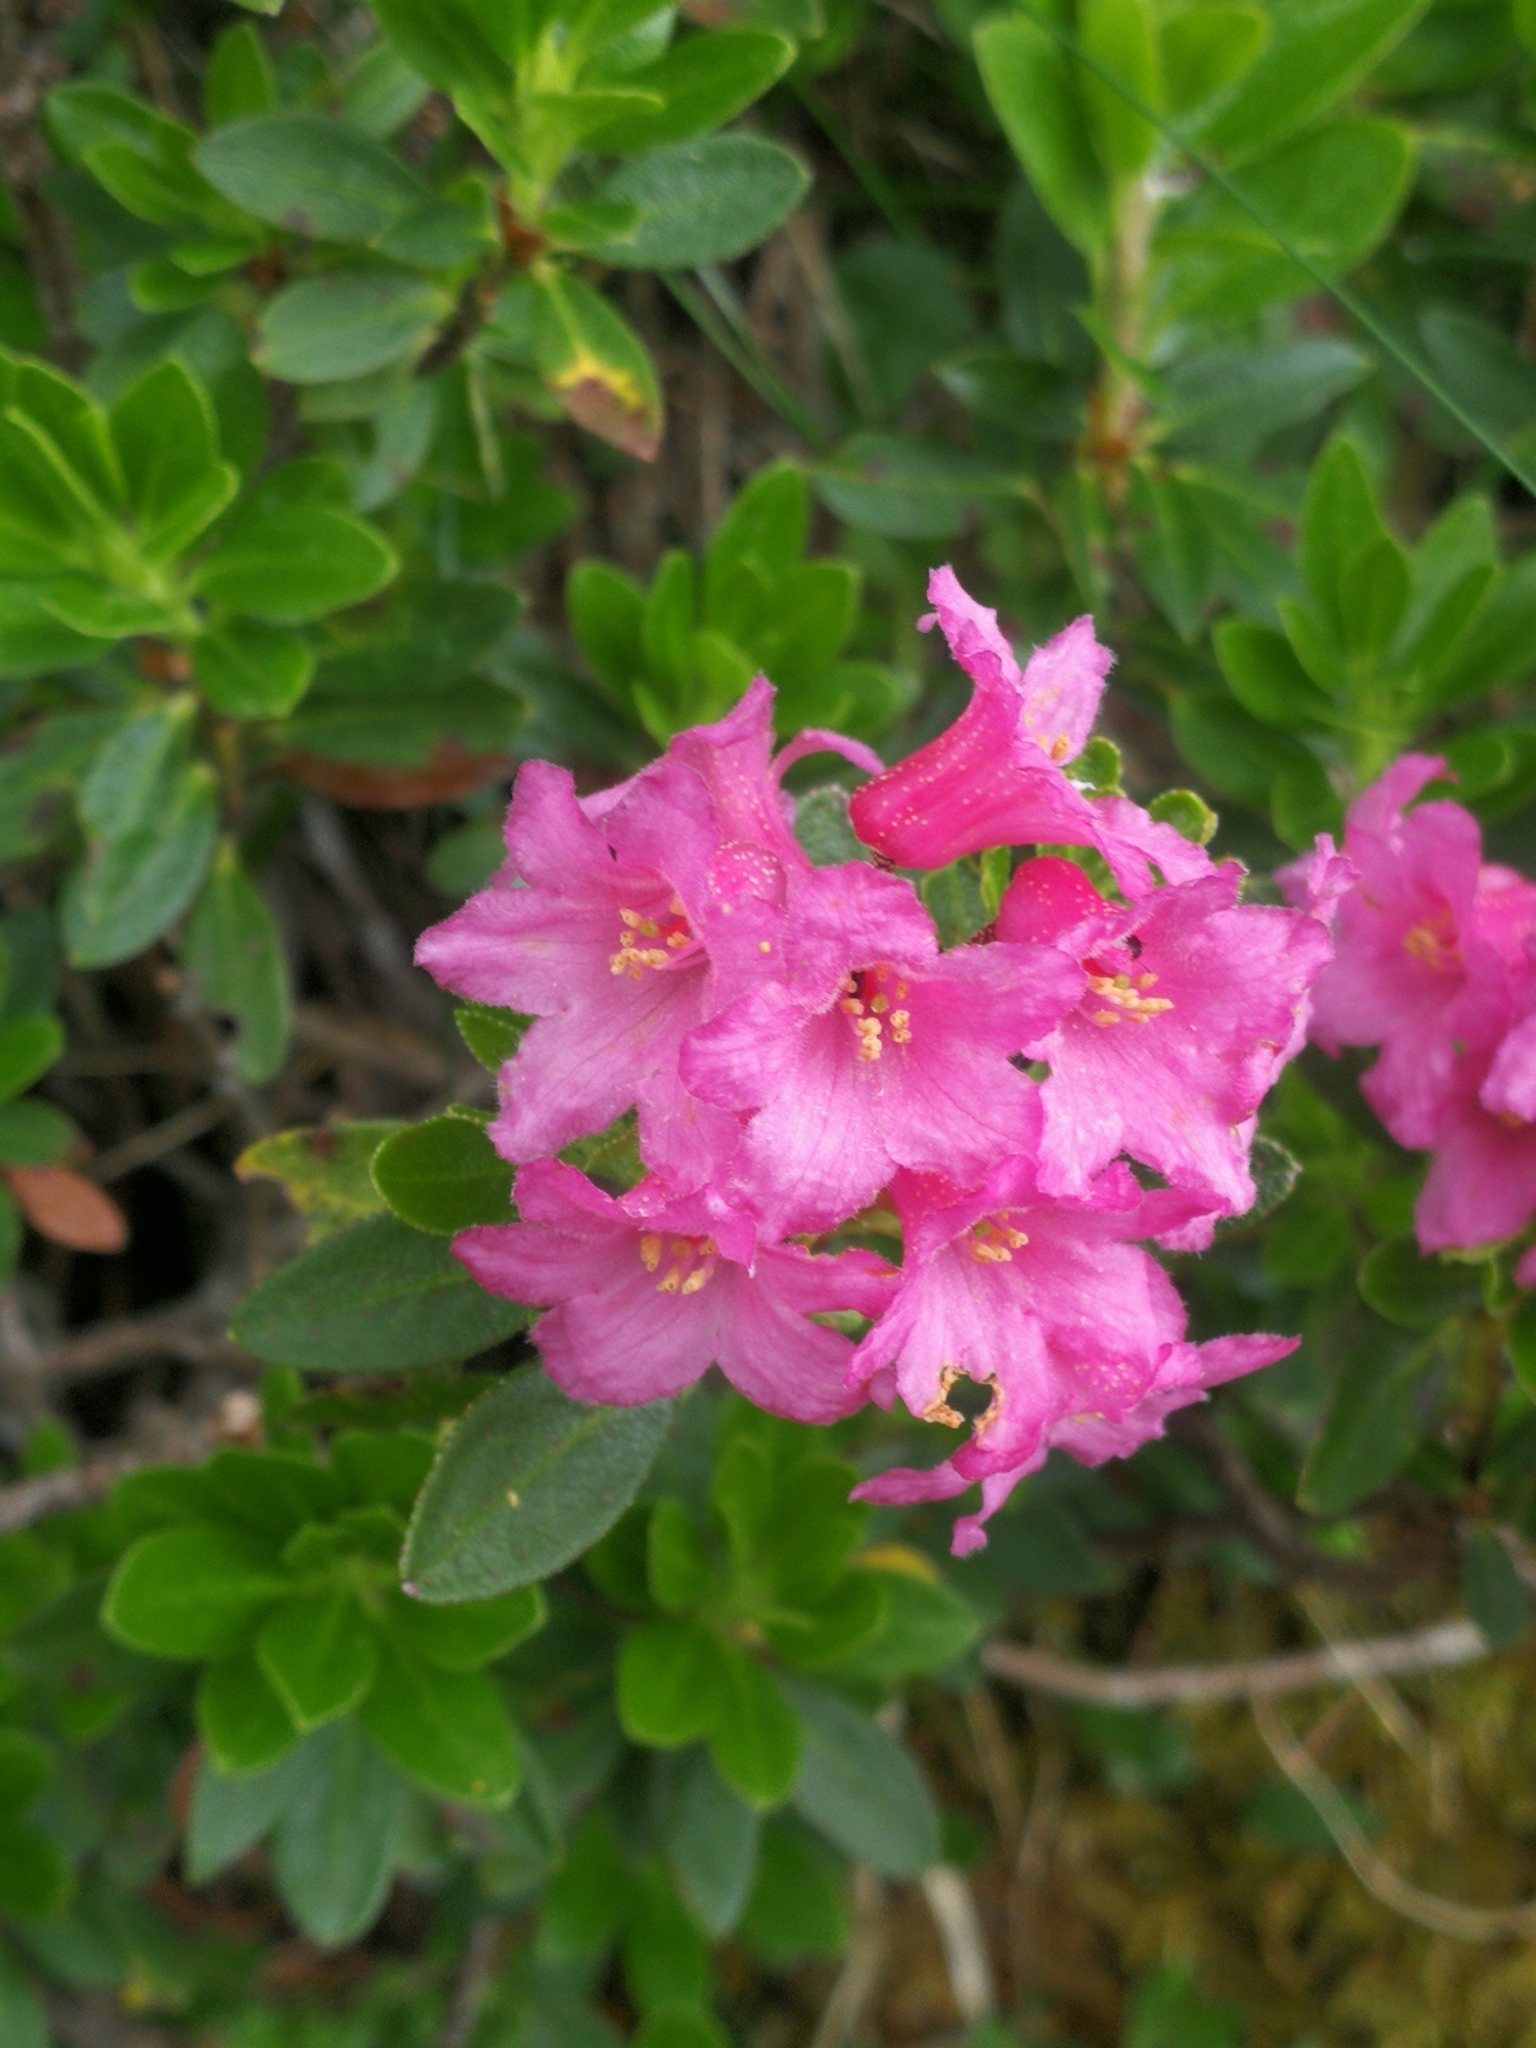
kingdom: Plantae
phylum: Tracheophyta
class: Magnoliopsida
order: Ericales
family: Ericaceae
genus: Rhododendron
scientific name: Rhododendron ferrugineum
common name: Alpenrose
